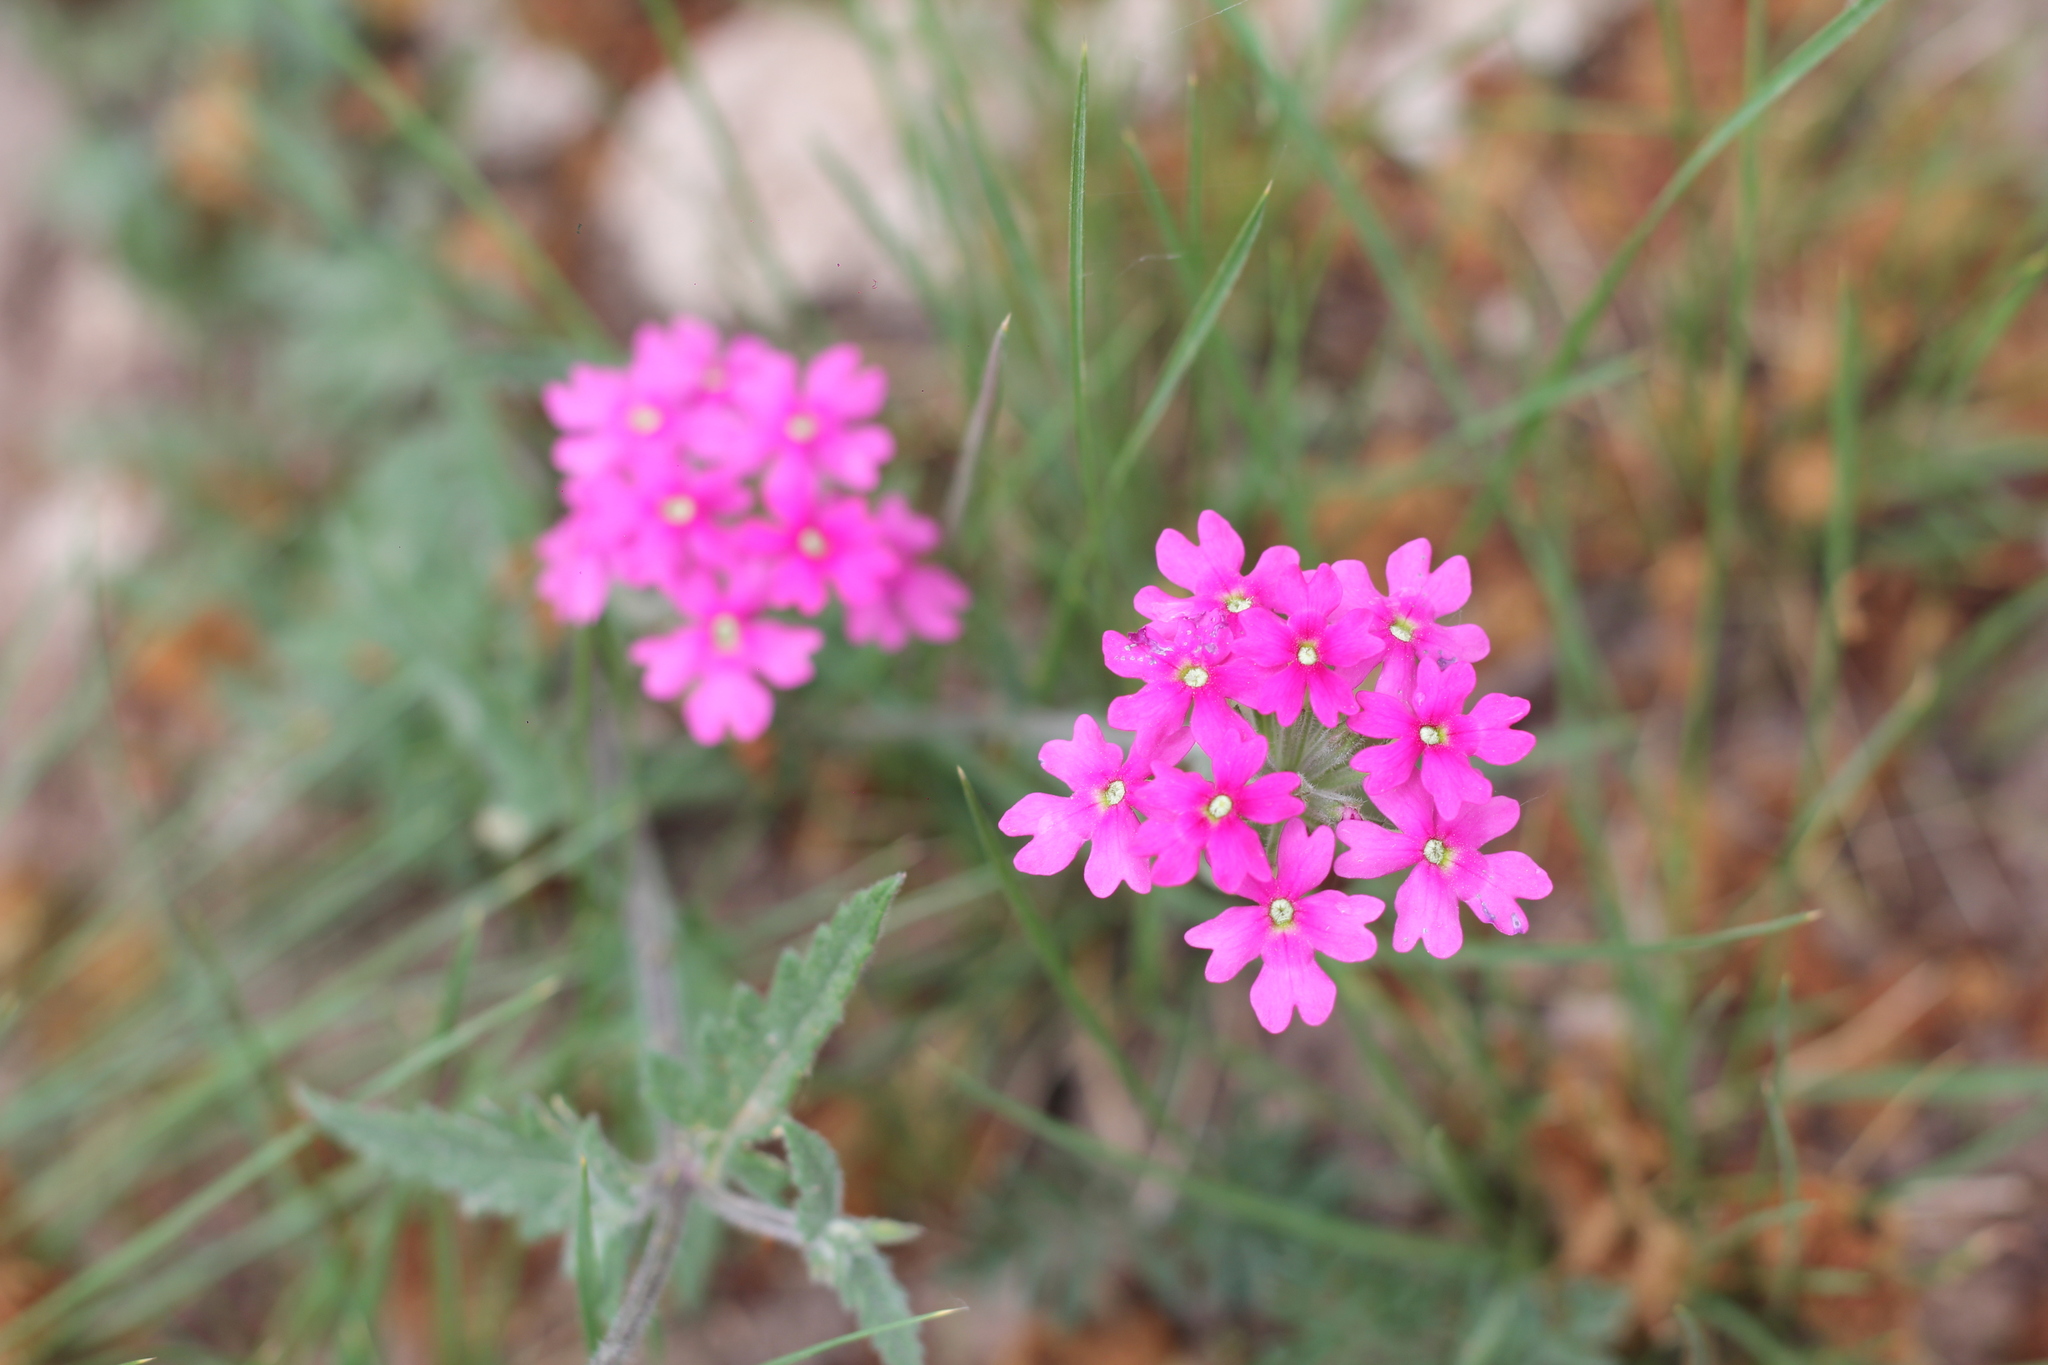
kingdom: Plantae
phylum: Tracheophyta
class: Magnoliopsida
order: Lamiales
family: Verbenaceae
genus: Verbena
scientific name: Verbena tweedieana
